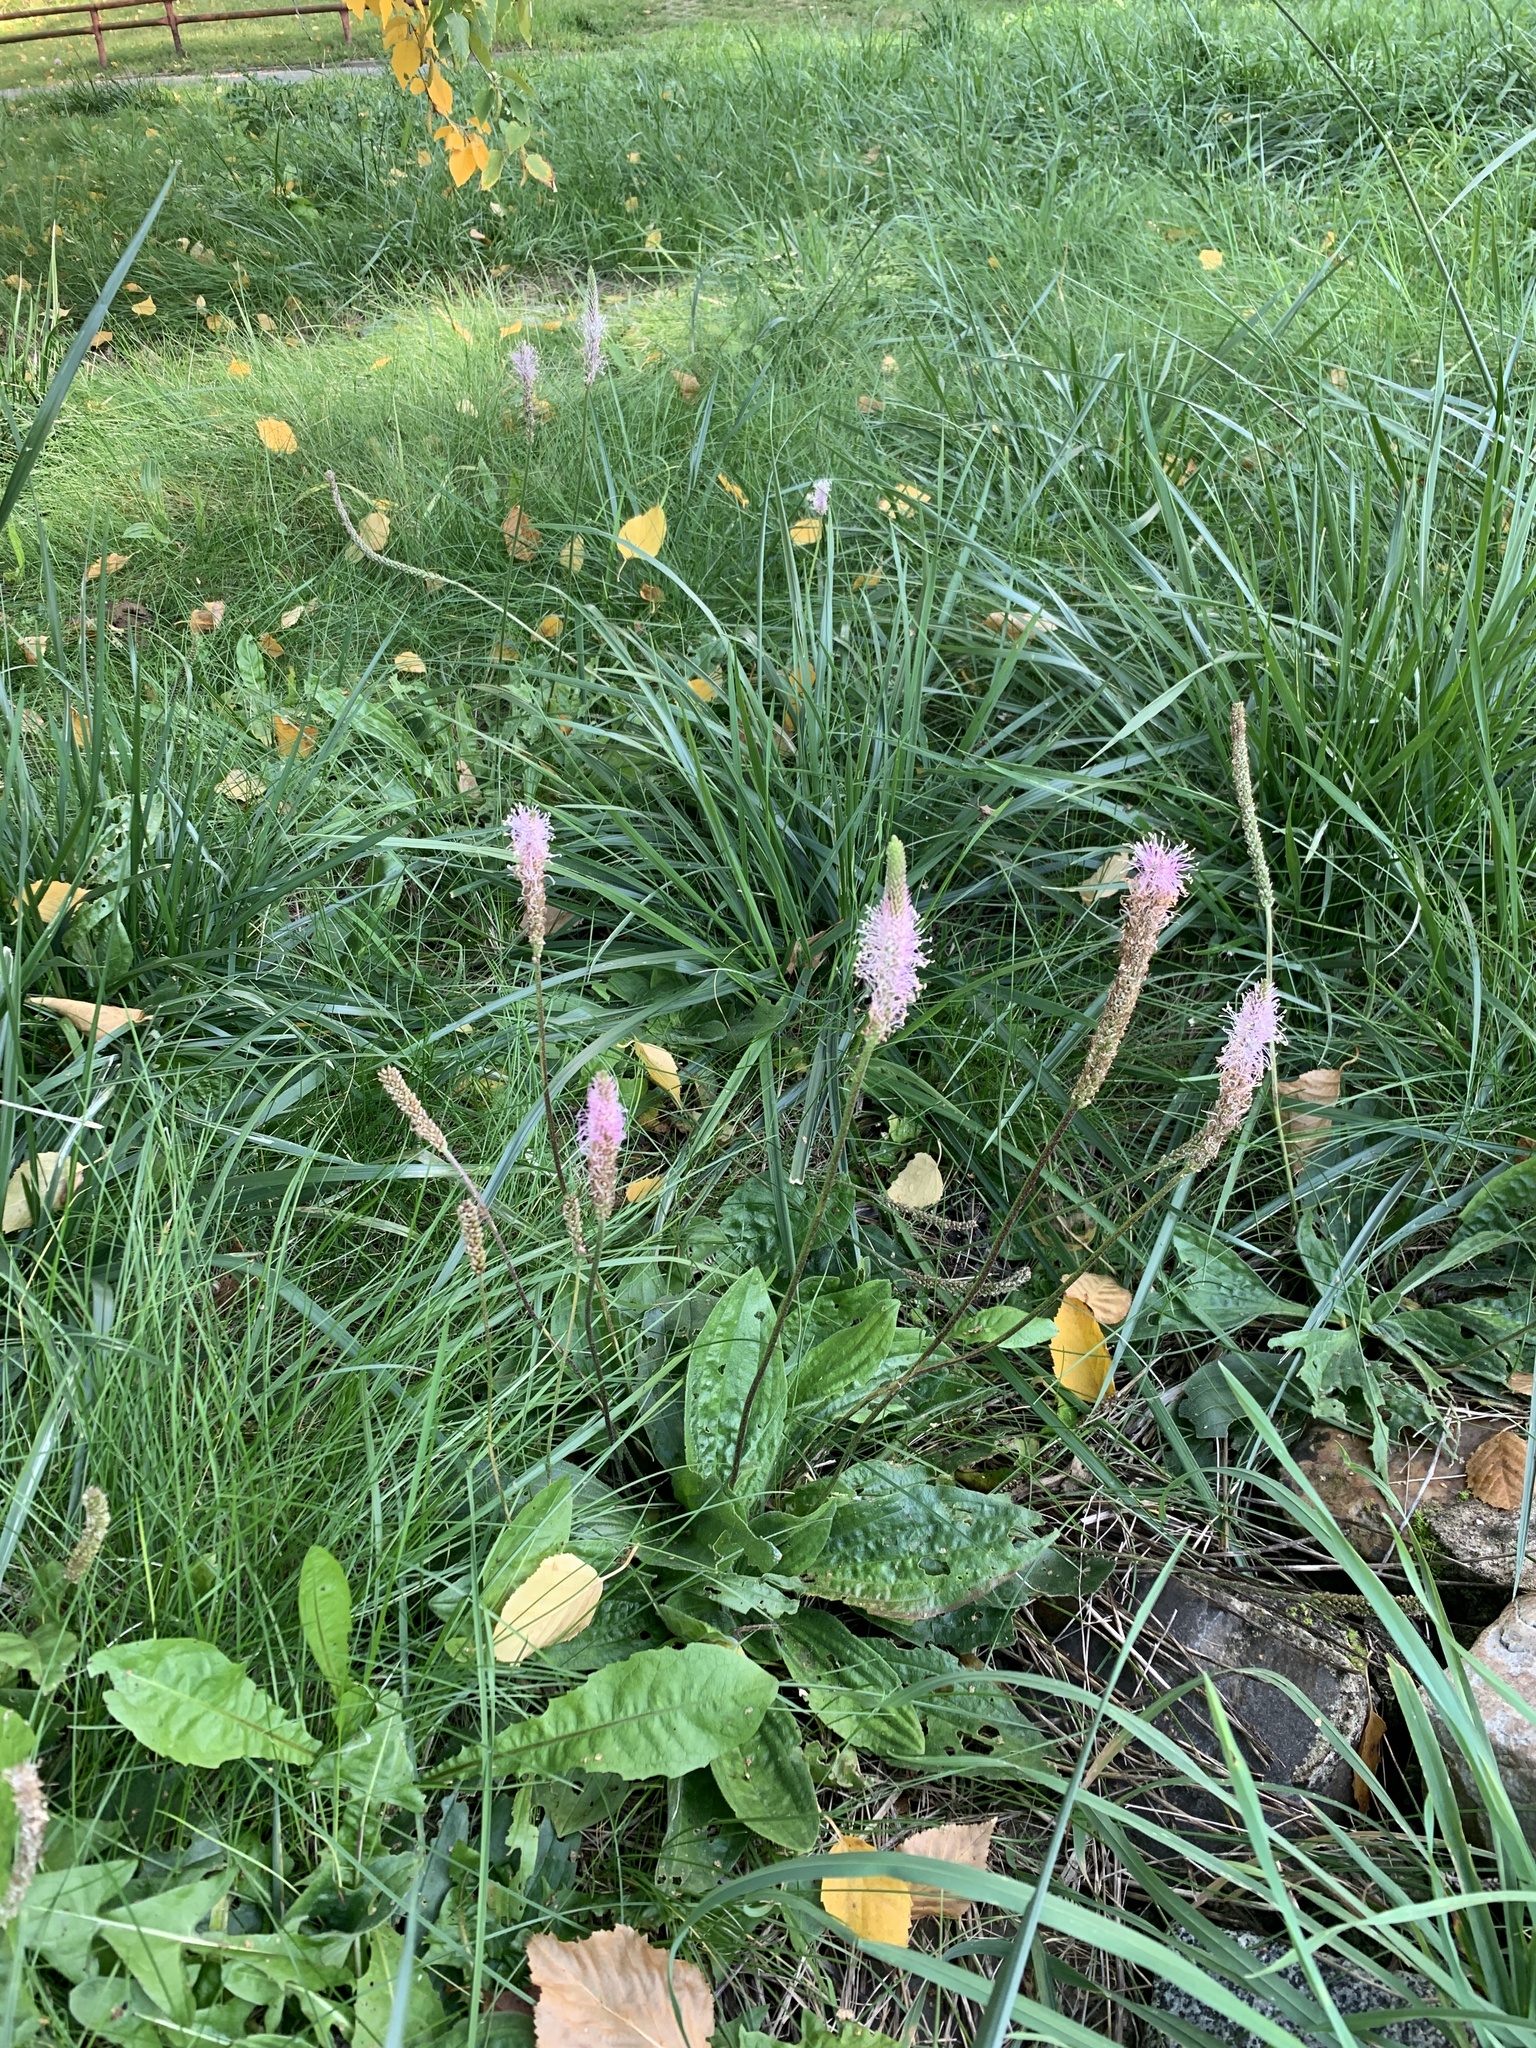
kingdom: Plantae
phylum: Tracheophyta
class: Magnoliopsida
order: Lamiales
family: Plantaginaceae
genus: Plantago
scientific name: Plantago media
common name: Hoary plantain
